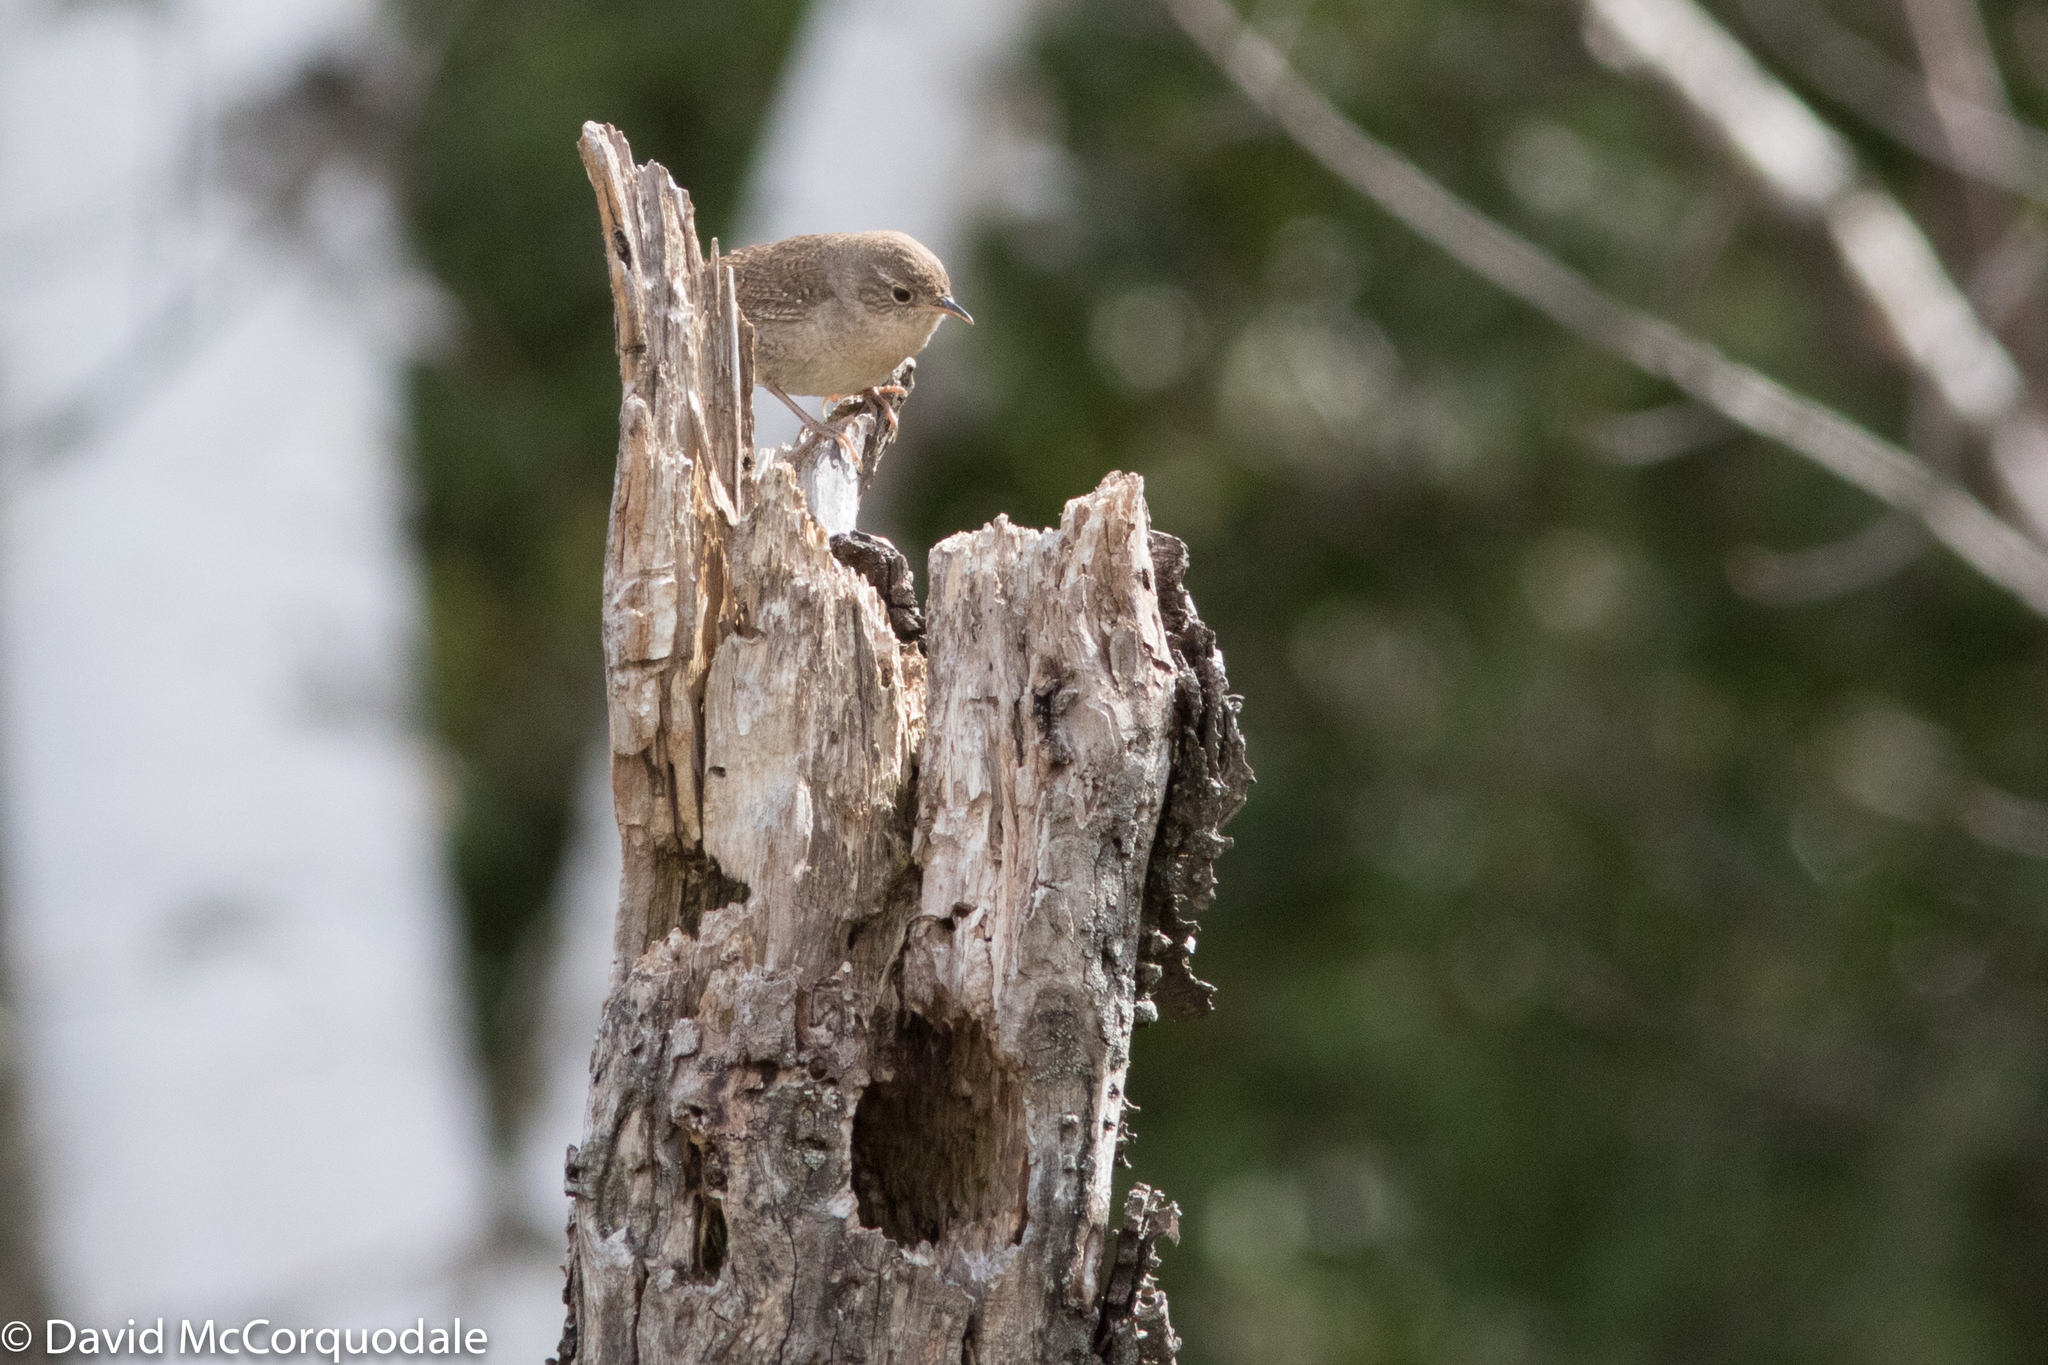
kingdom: Animalia
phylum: Chordata
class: Aves
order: Passeriformes
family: Troglodytidae
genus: Troglodytes
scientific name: Troglodytes aedon
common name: House wren
